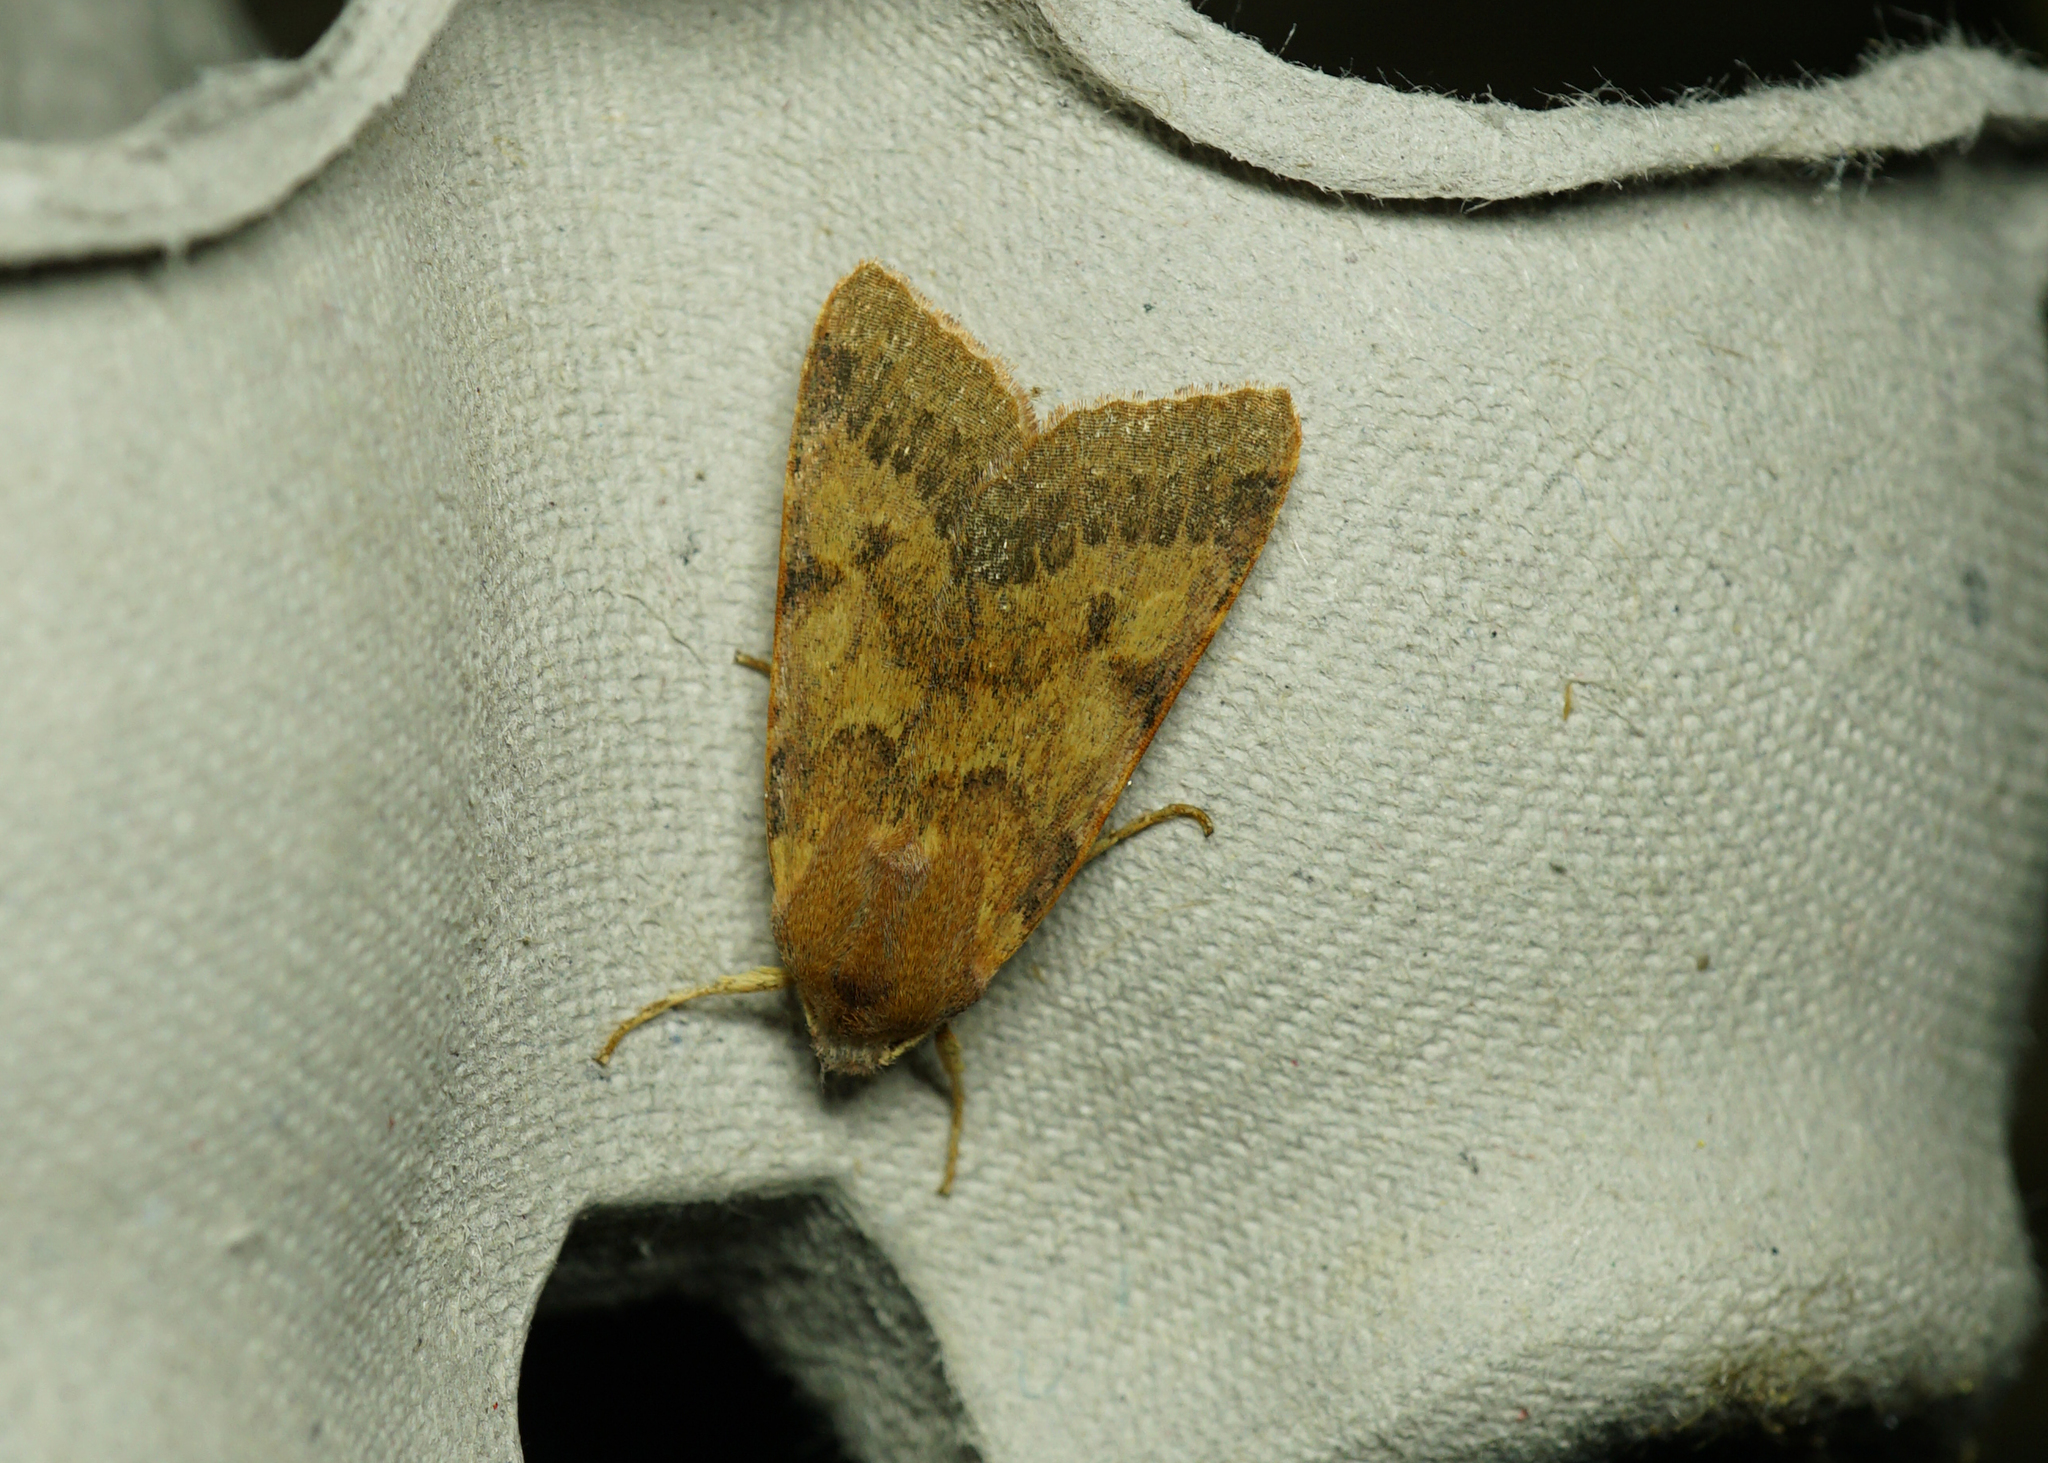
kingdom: Animalia
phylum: Arthropoda
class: Insecta
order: Lepidoptera
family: Noctuidae
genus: Agrochola
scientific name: Agrochola helvola
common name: Flounced chestnut
